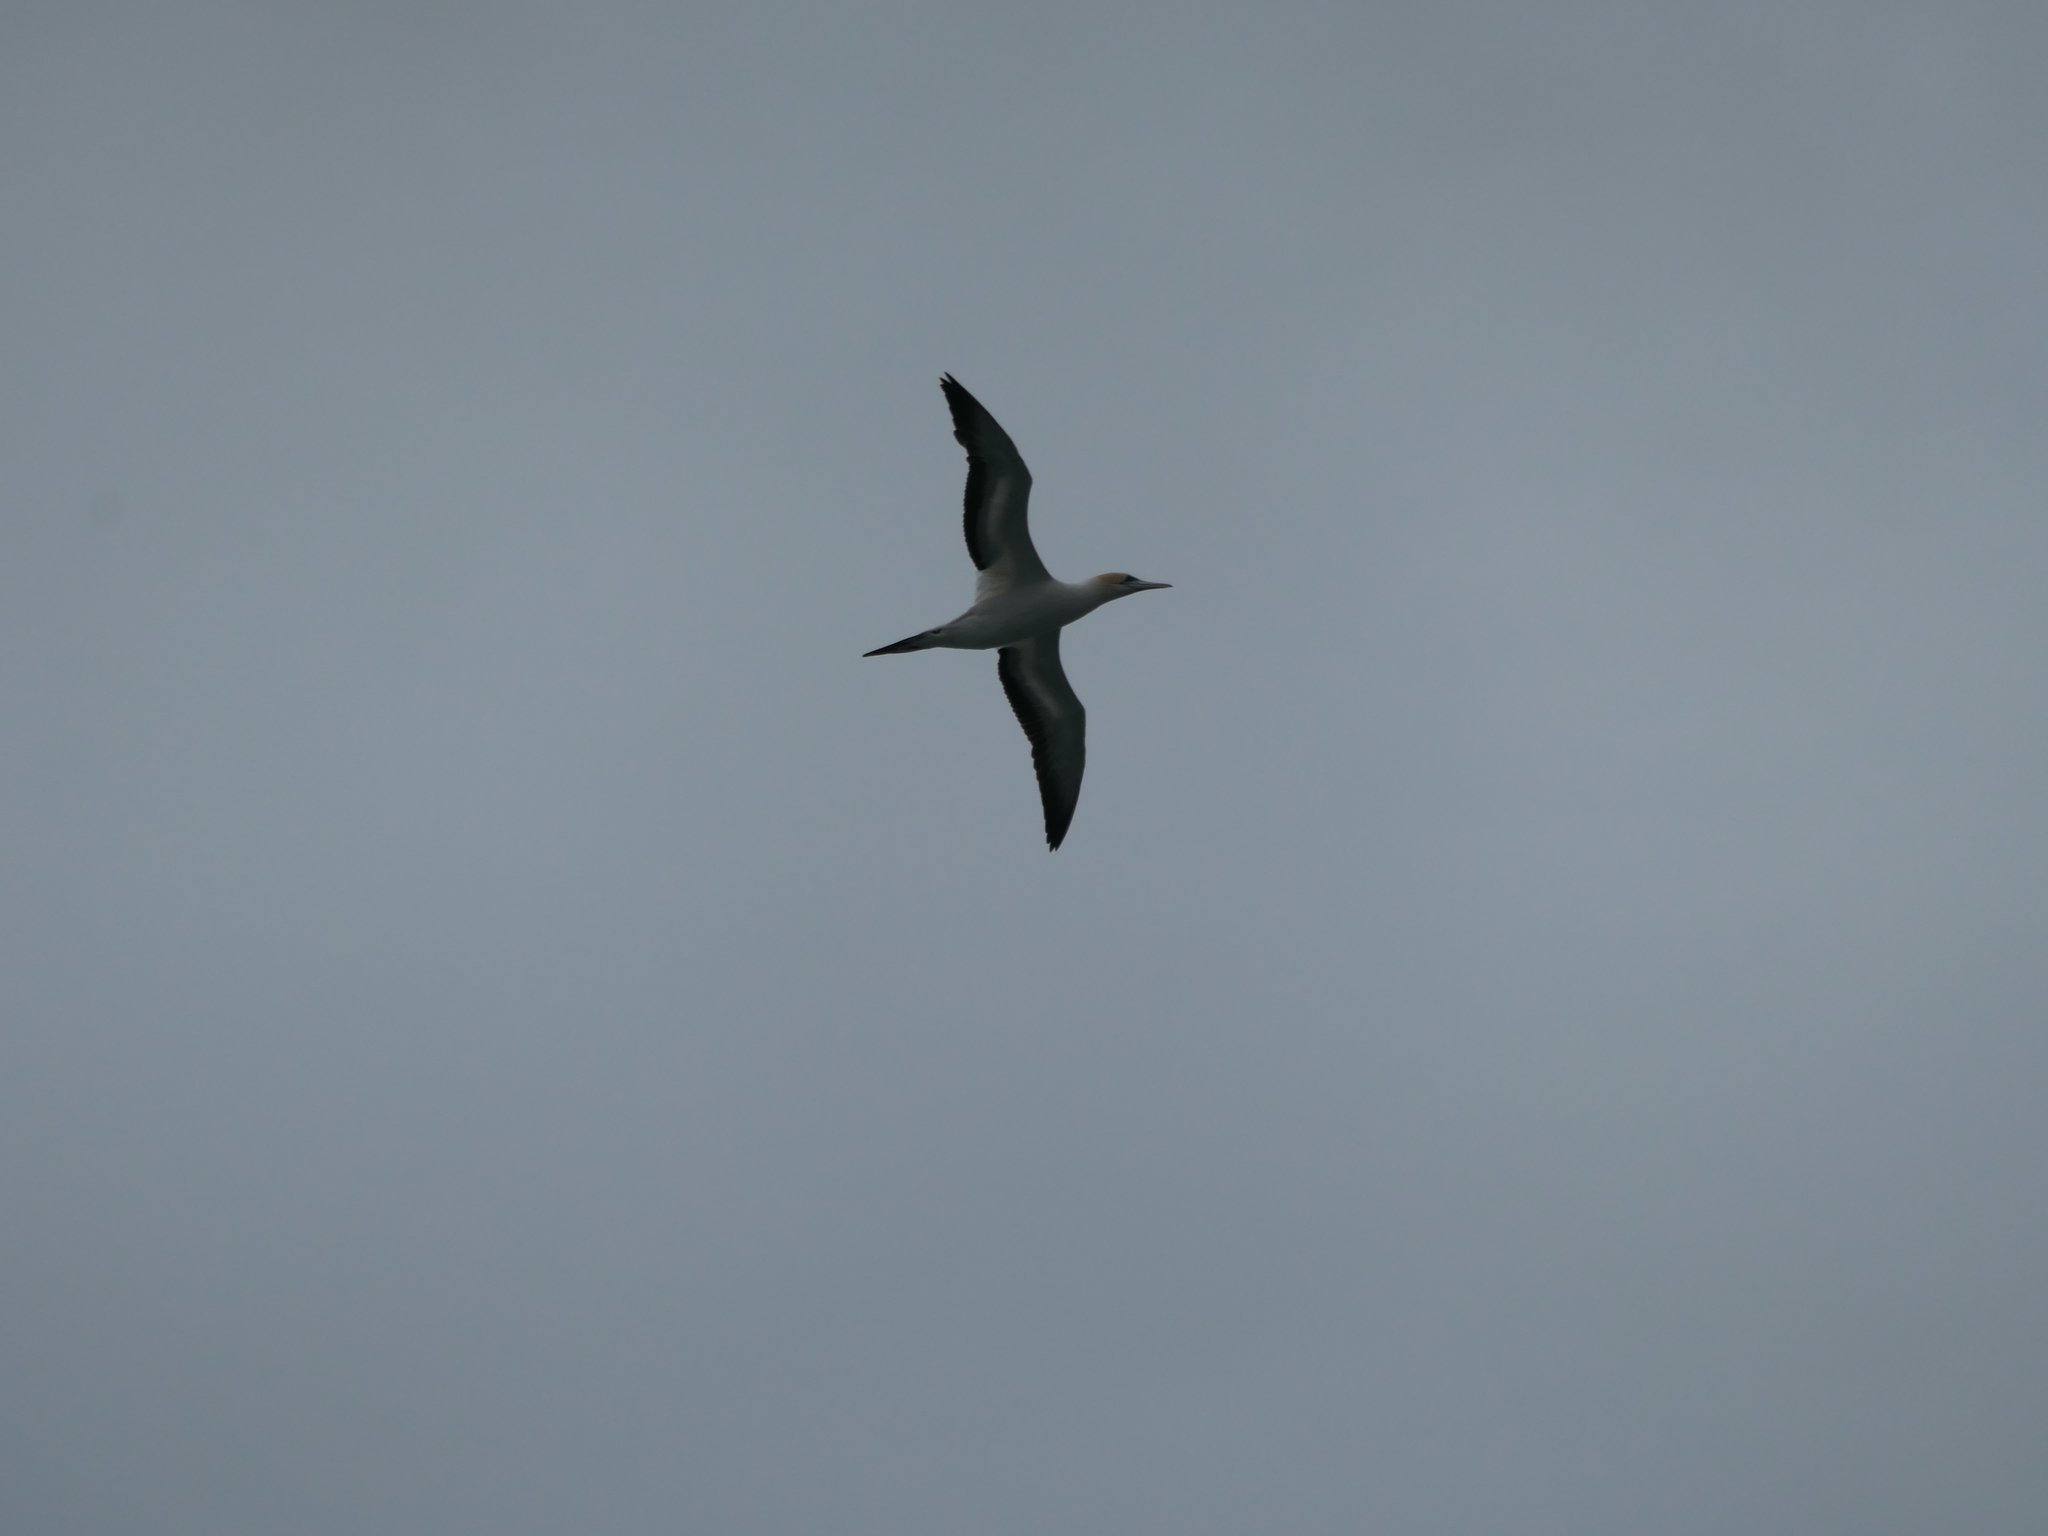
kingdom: Animalia
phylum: Chordata
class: Aves
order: Suliformes
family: Sulidae
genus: Morus
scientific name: Morus serrator
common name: Australasian gannet
